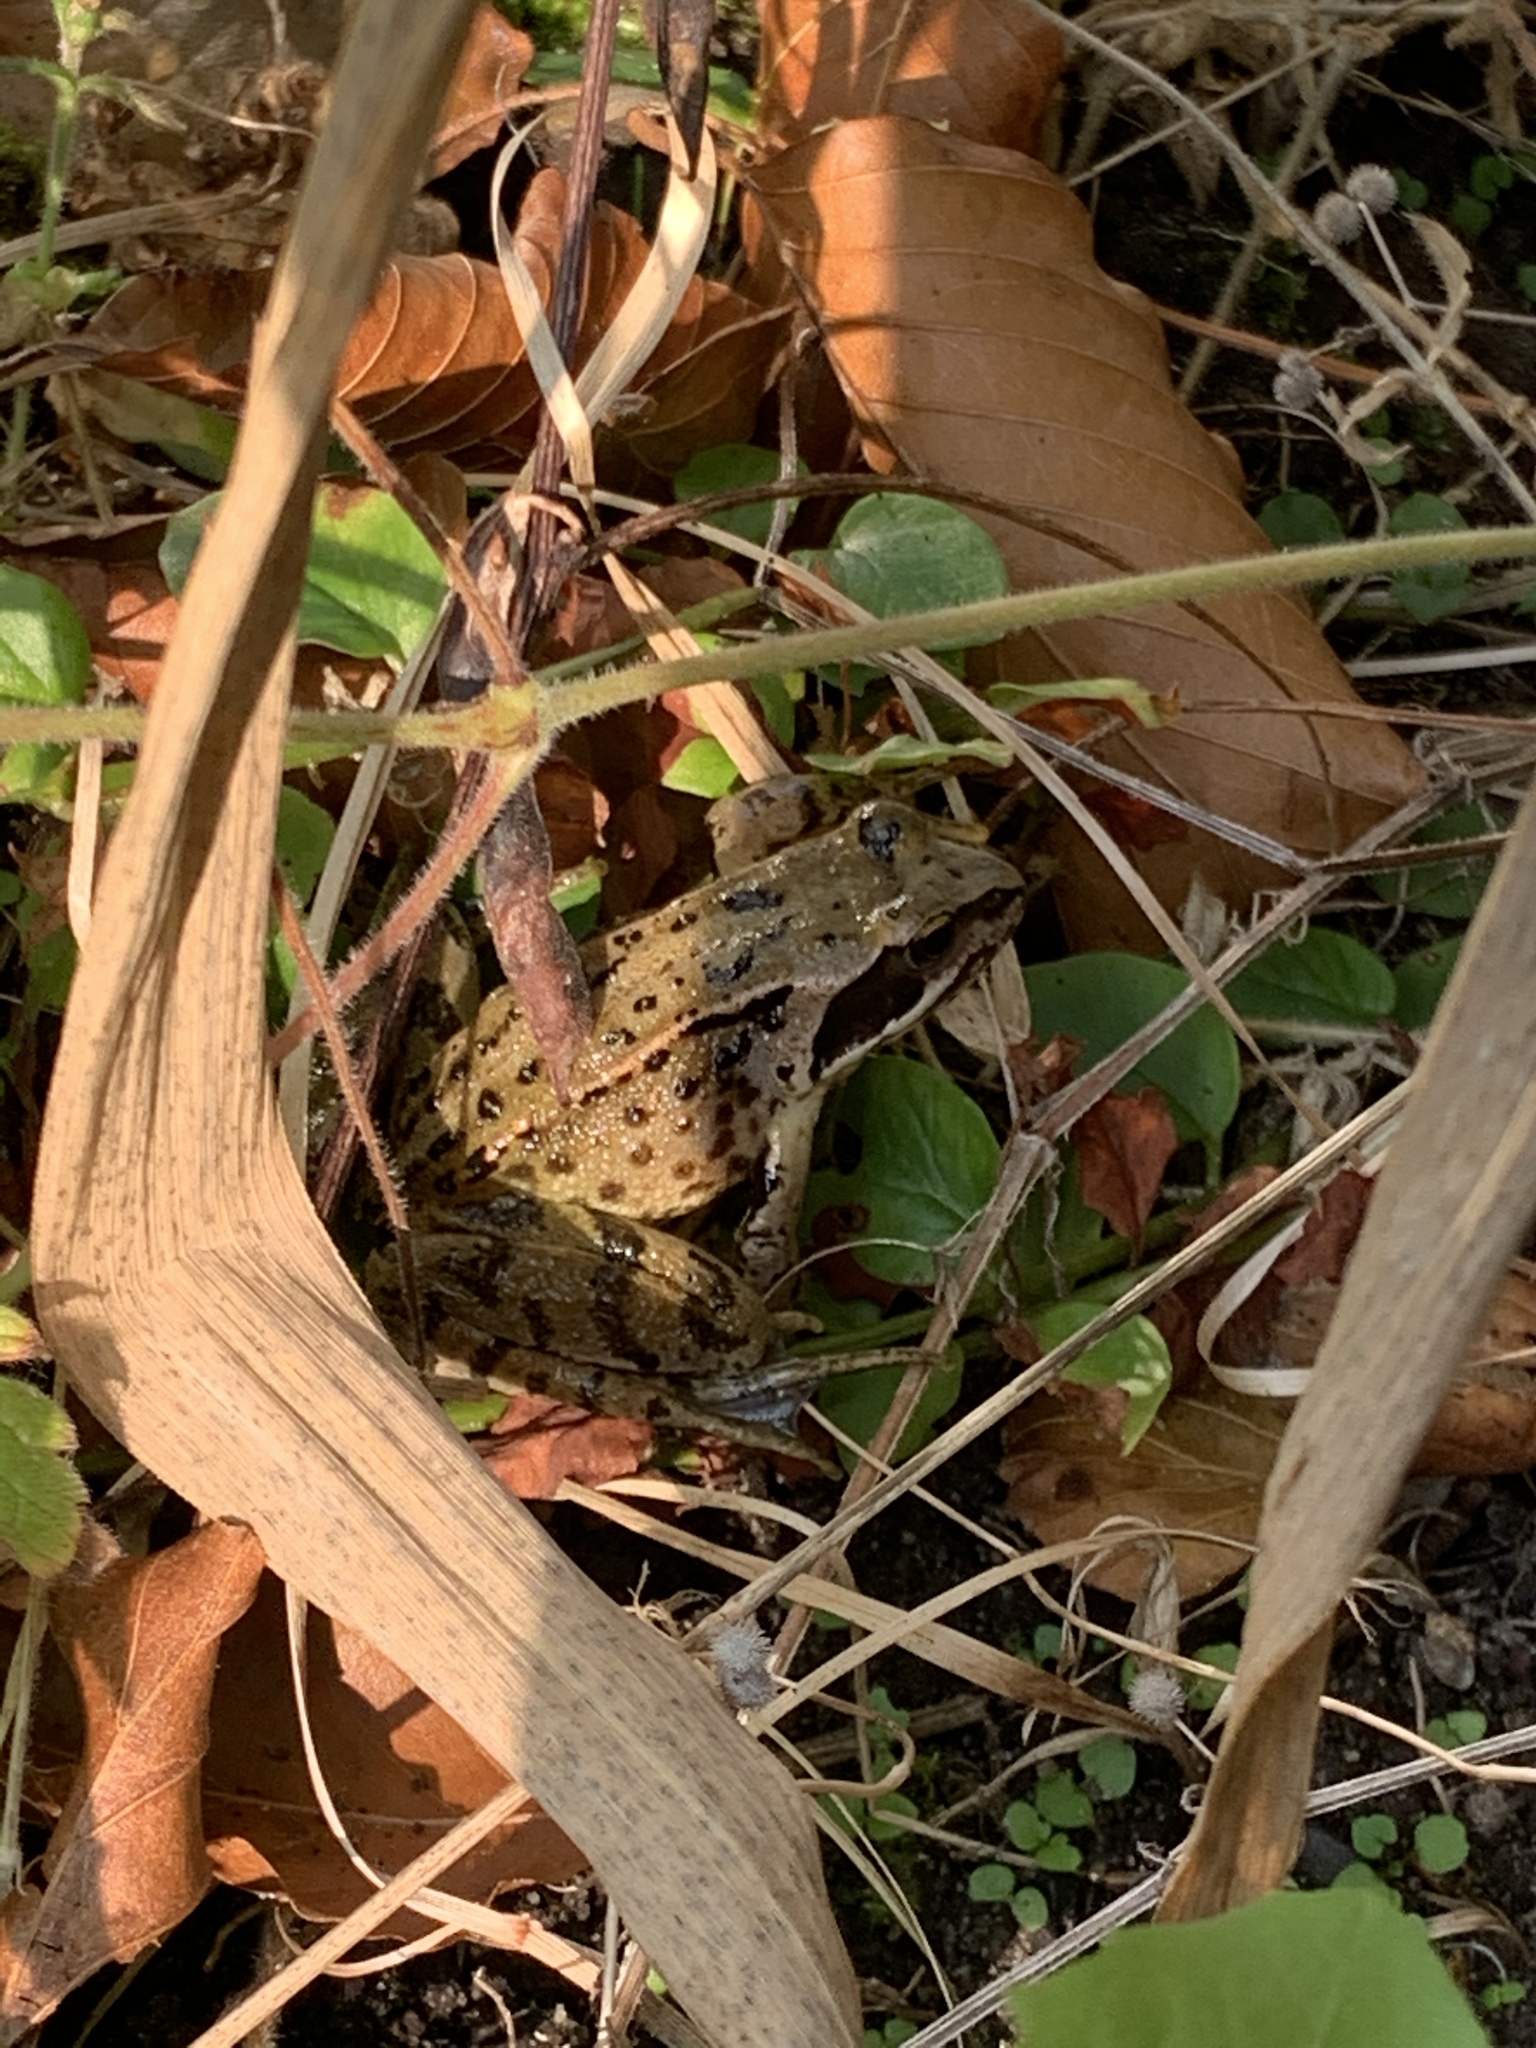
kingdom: Animalia
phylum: Chordata
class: Amphibia
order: Anura
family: Ranidae
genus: Rana
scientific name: Rana temporaria
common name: Common frog
